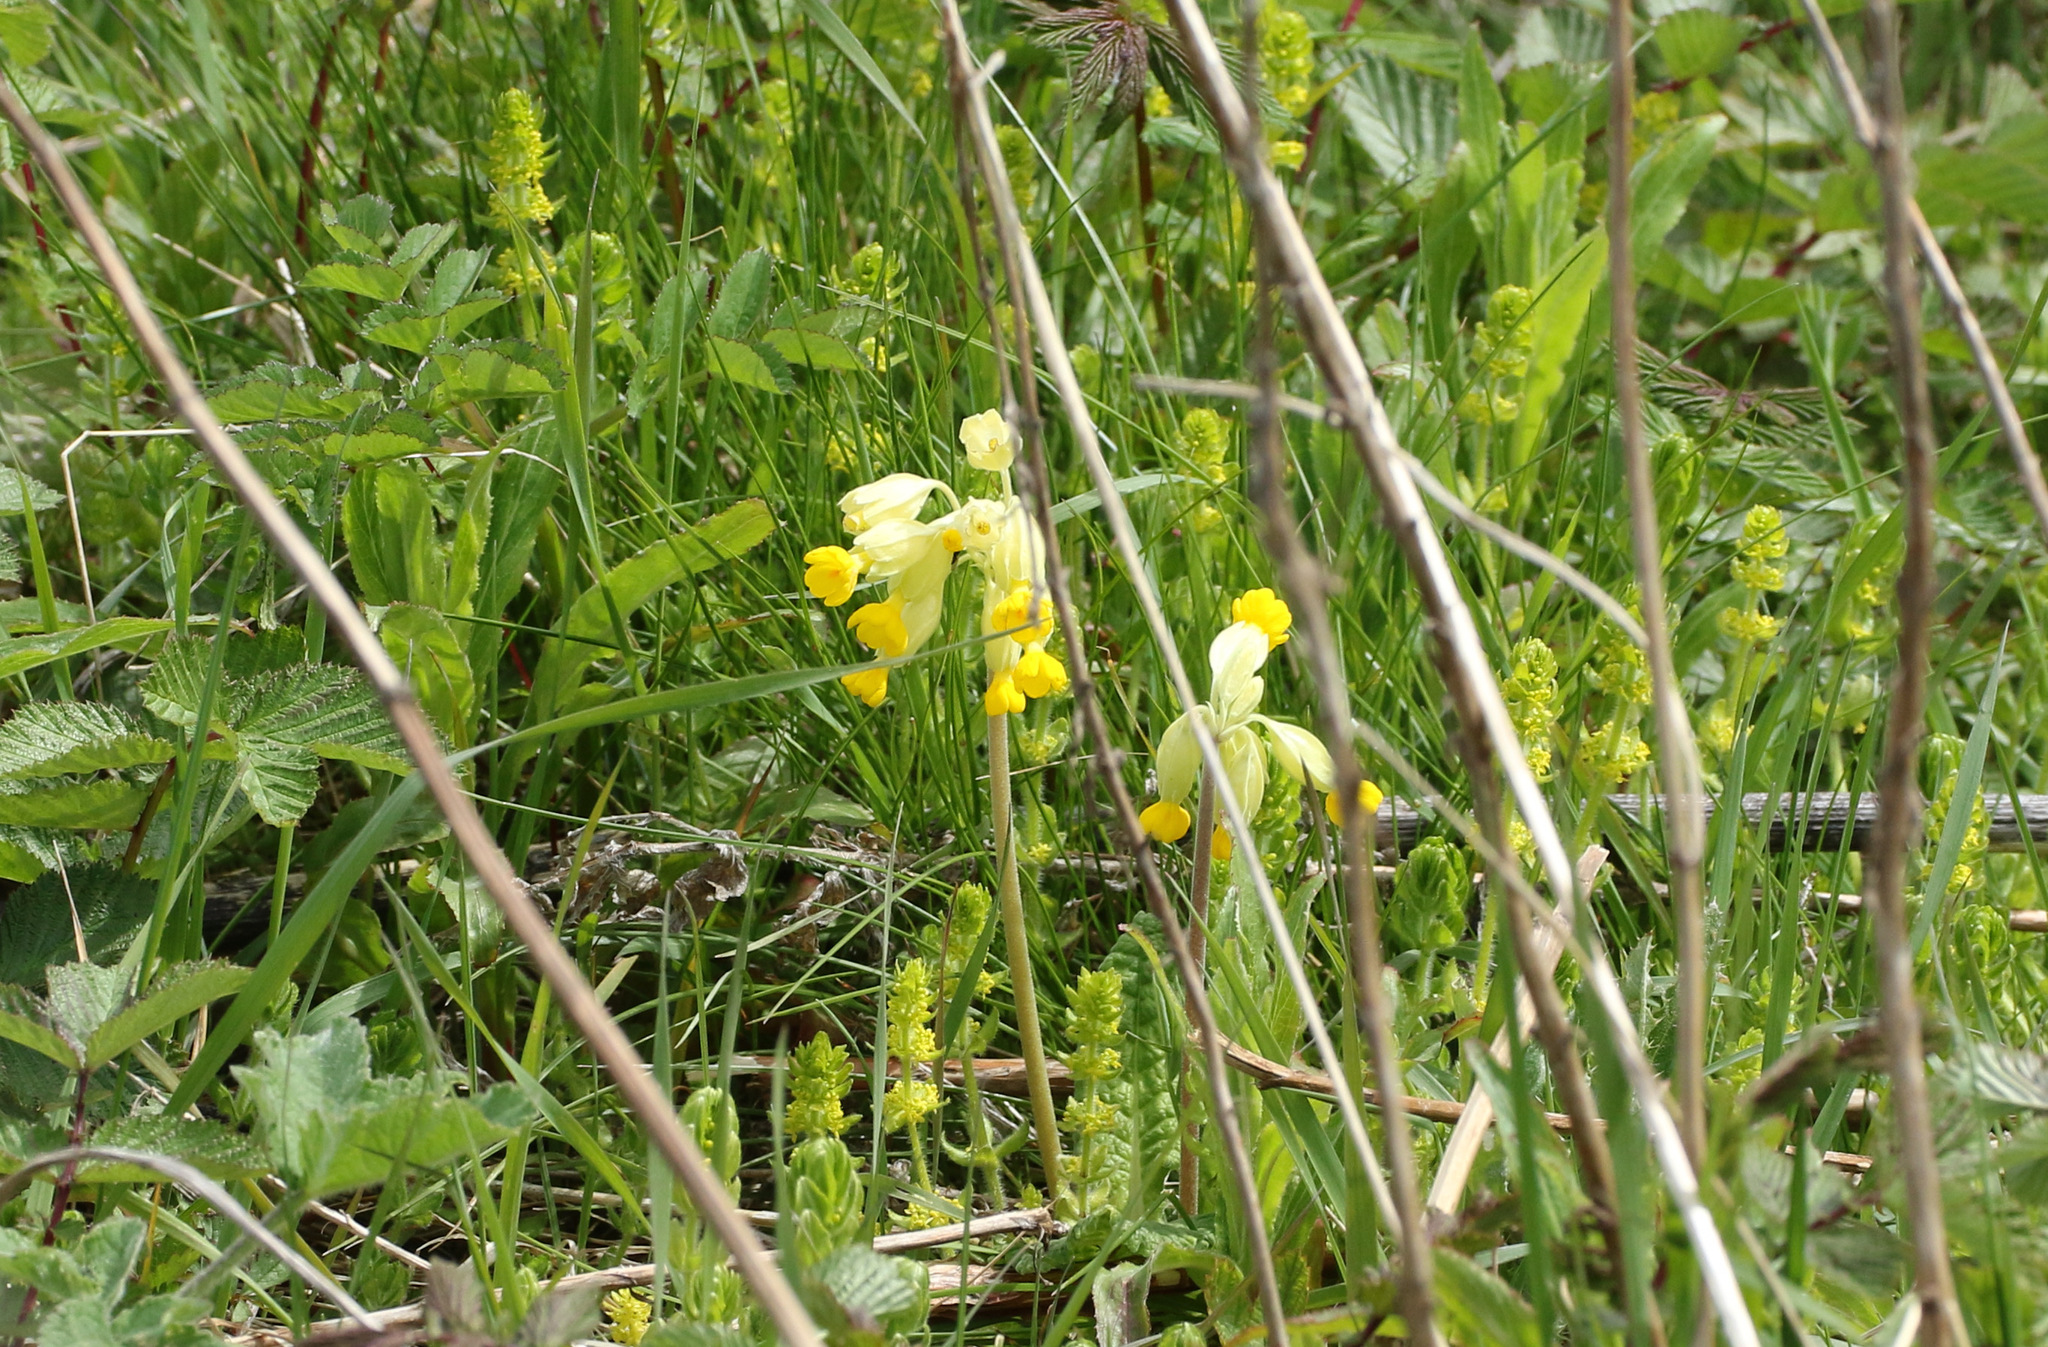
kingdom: Plantae
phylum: Tracheophyta
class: Magnoliopsida
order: Ericales
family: Primulaceae
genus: Primula
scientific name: Primula veris
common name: Cowslip
